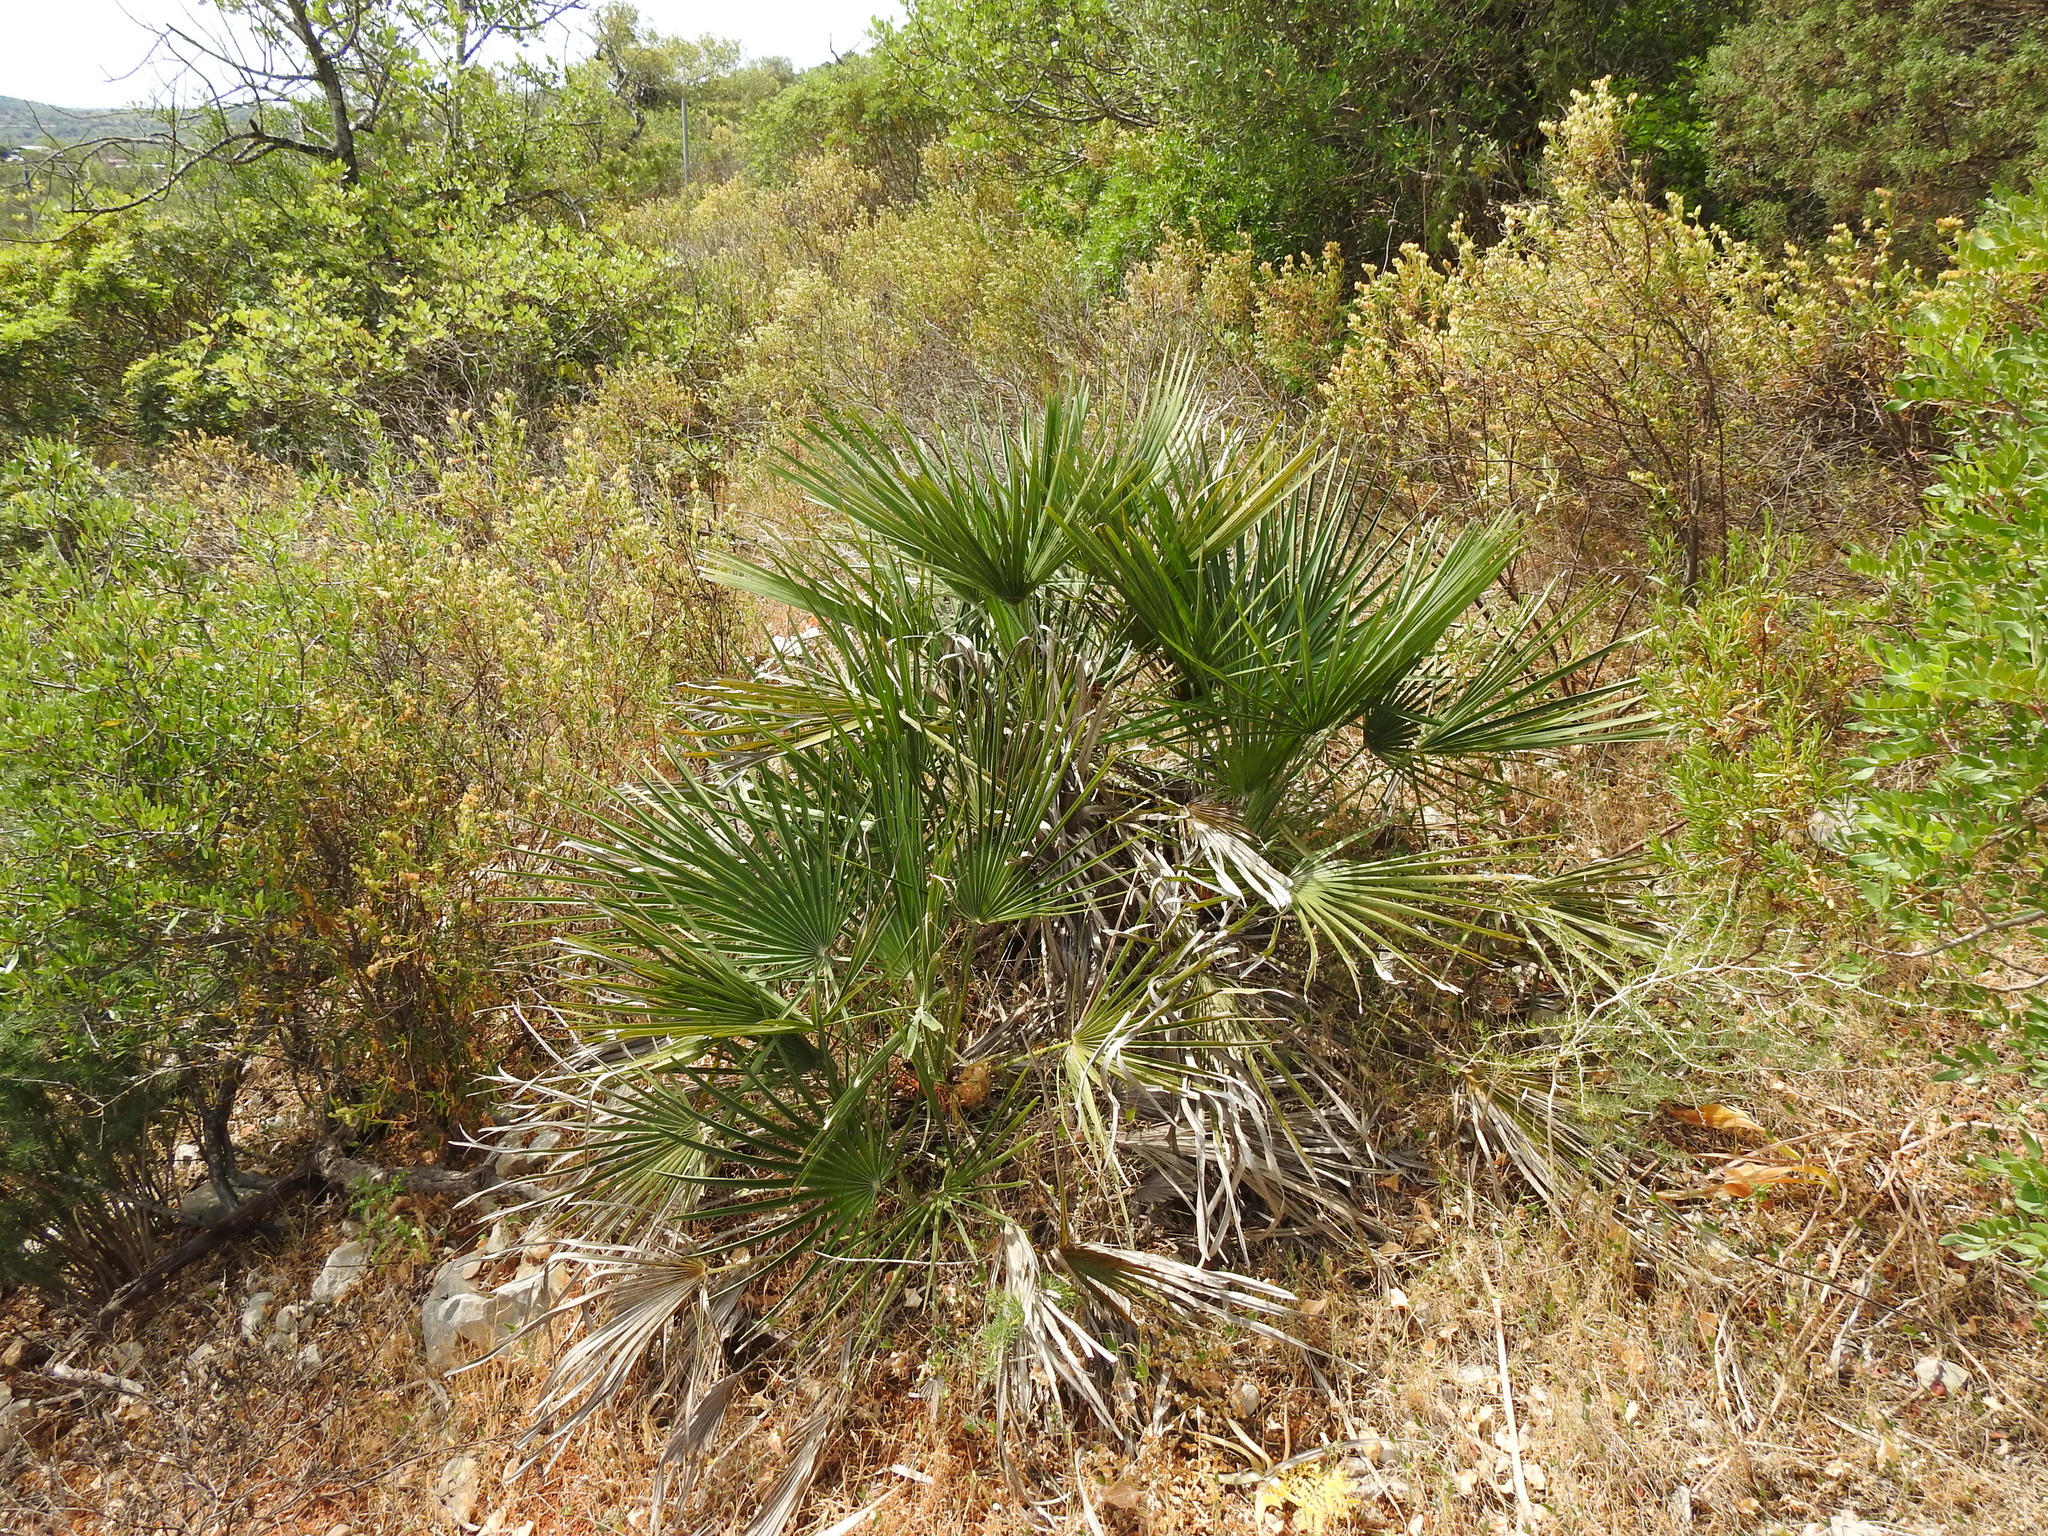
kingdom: Plantae
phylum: Tracheophyta
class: Liliopsida
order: Arecales
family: Arecaceae
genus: Chamaerops
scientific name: Chamaerops humilis
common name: Dwarf fan palm
